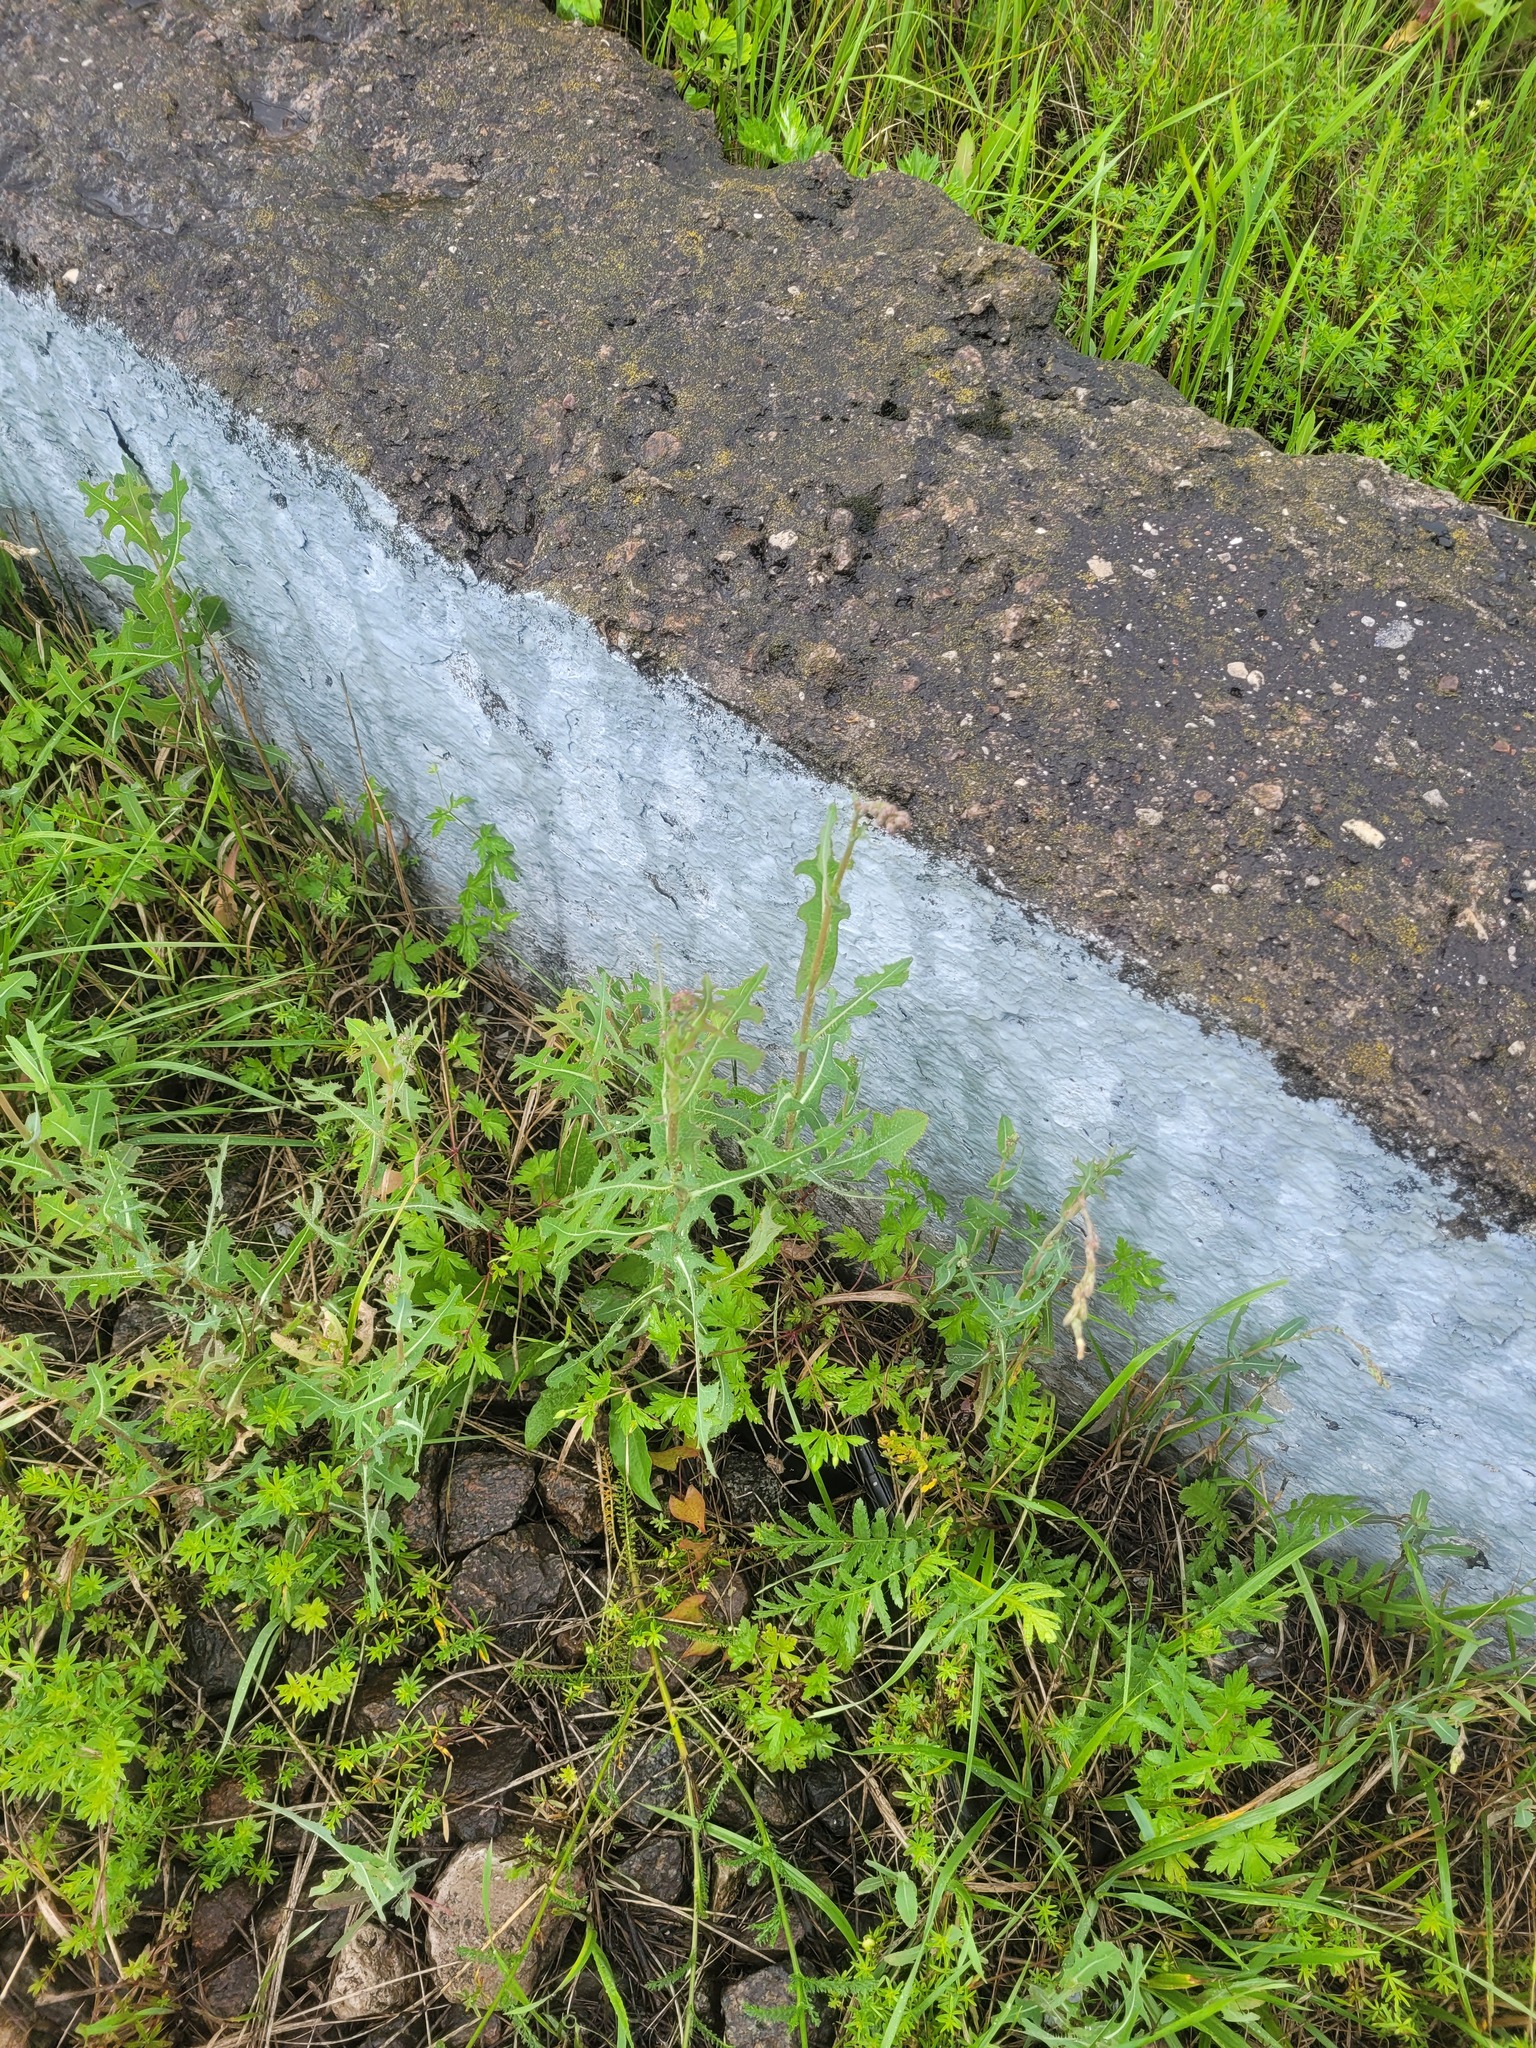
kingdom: Plantae
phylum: Tracheophyta
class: Magnoliopsida
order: Asterales
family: Asteraceae
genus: Lactuca
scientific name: Lactuca serriola
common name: Prickly lettuce
